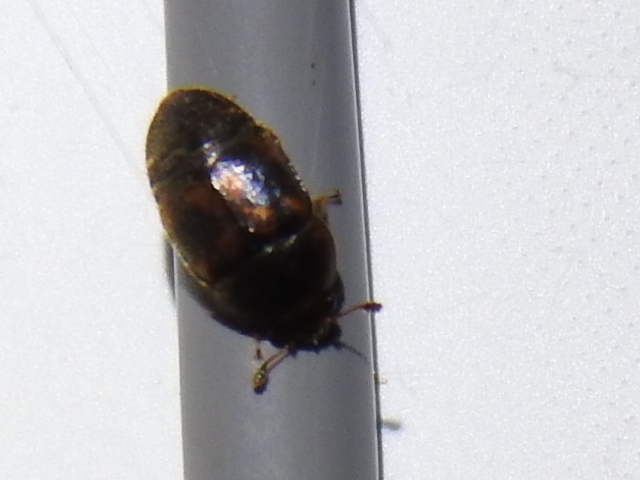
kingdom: Animalia
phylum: Arthropoda
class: Insecta
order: Coleoptera
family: Nitidulidae
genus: Colopterus
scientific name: Colopterus maculatus
